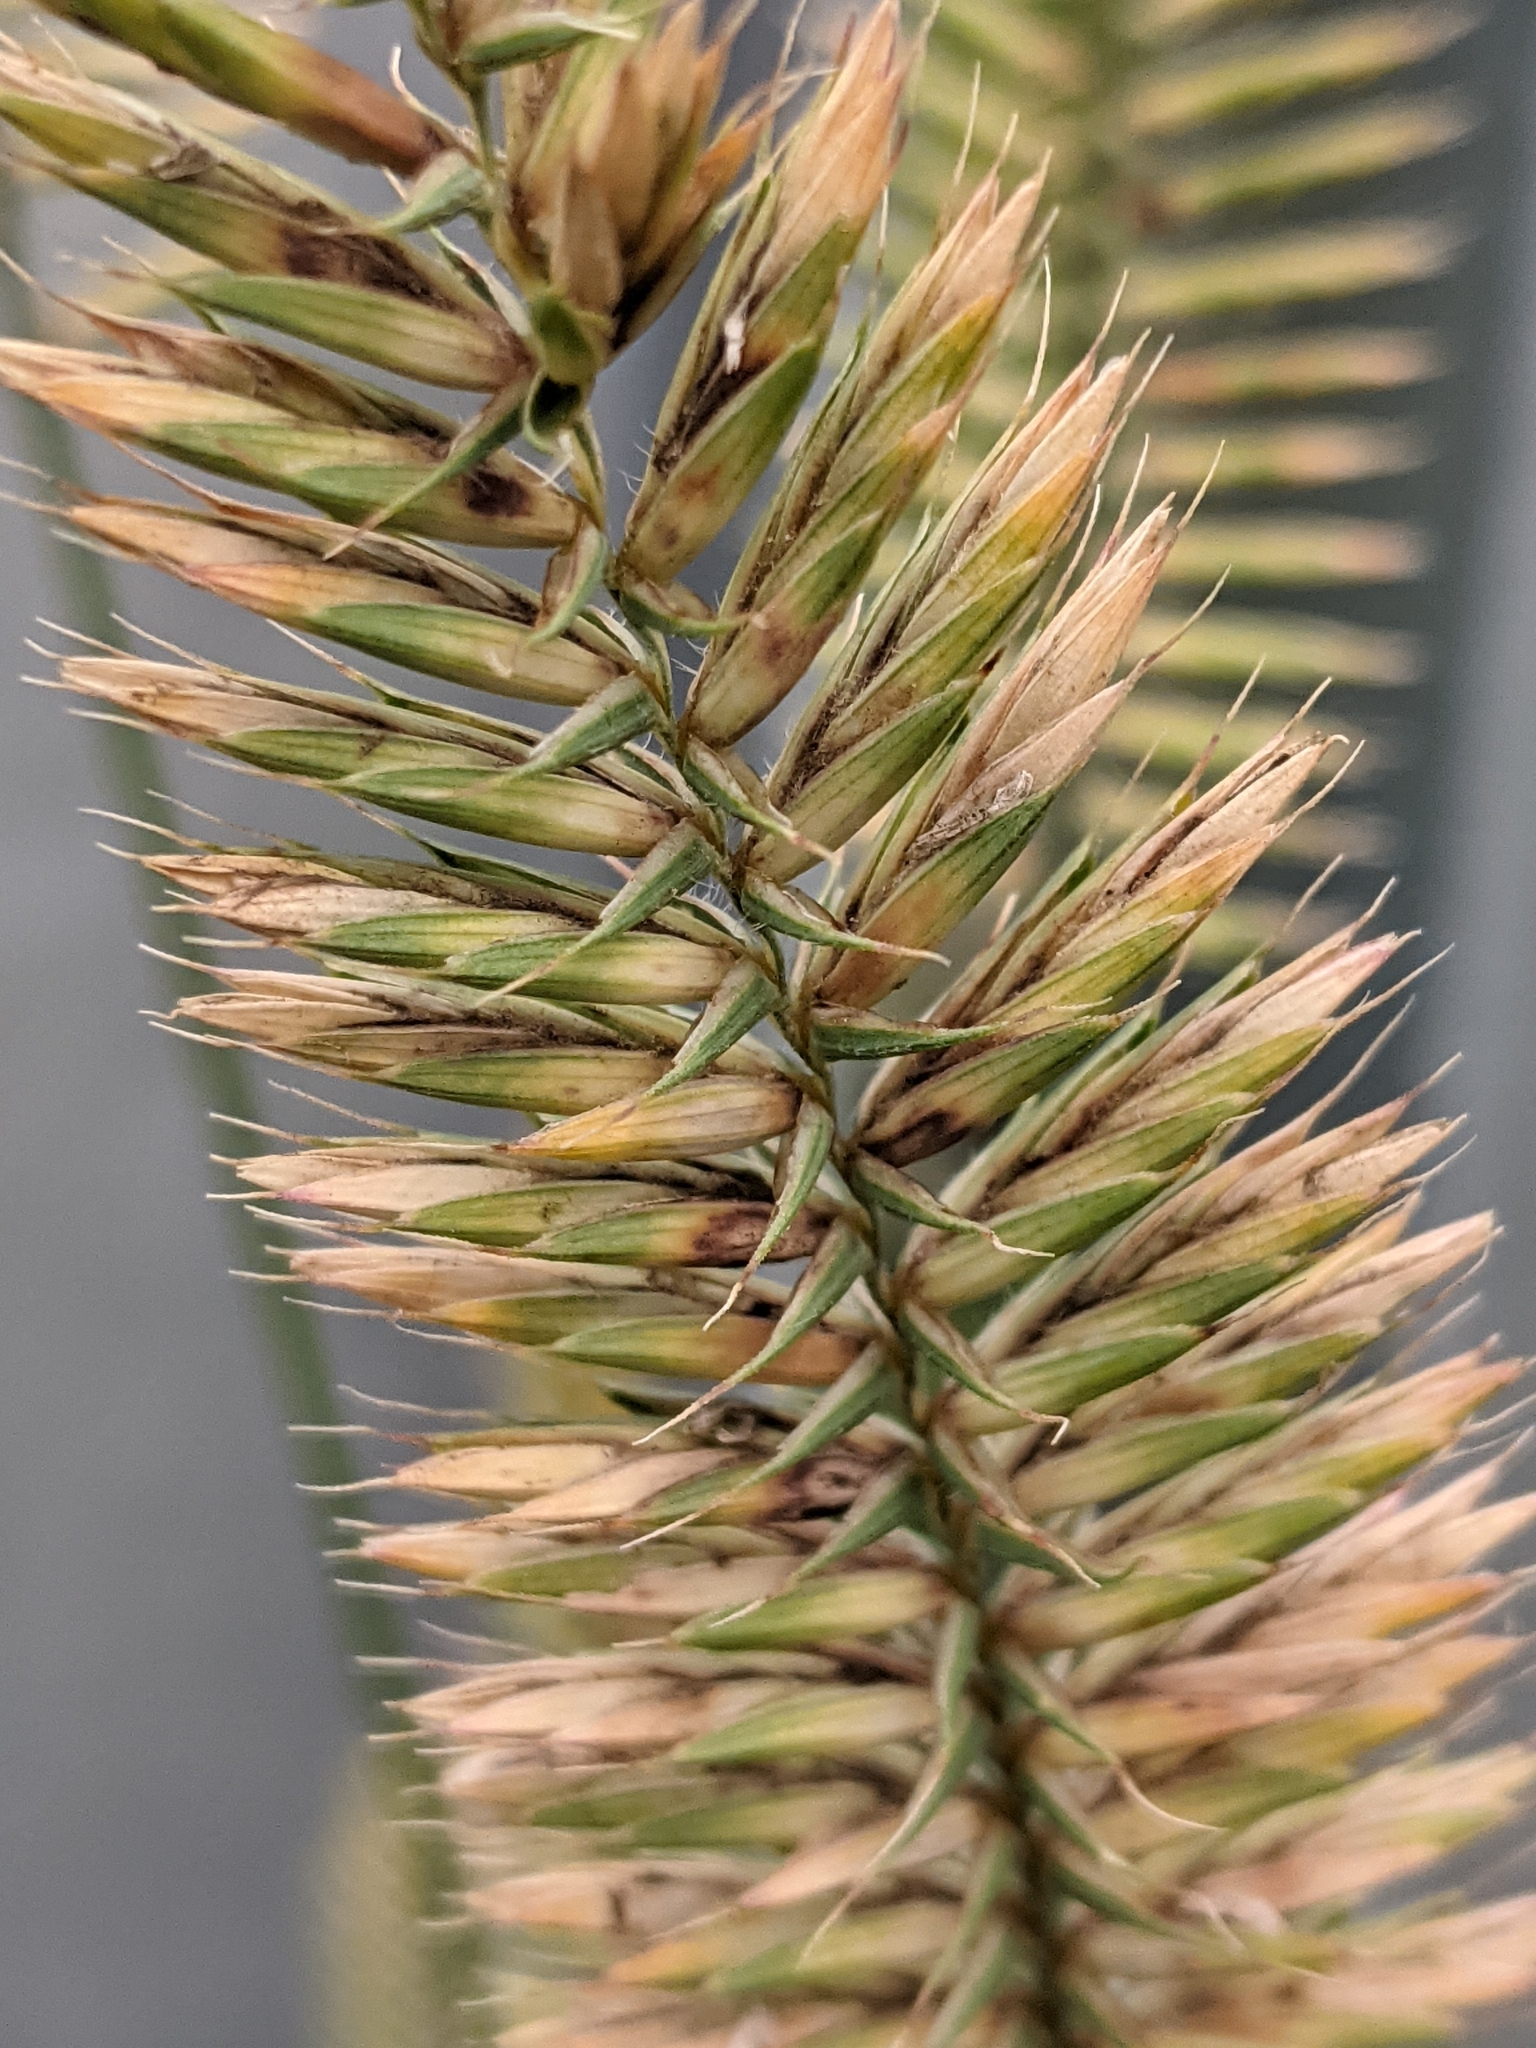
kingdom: Plantae
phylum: Tracheophyta
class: Liliopsida
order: Poales
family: Poaceae
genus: Agropyron
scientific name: Agropyron cristatum
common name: Crested wheatgrass
